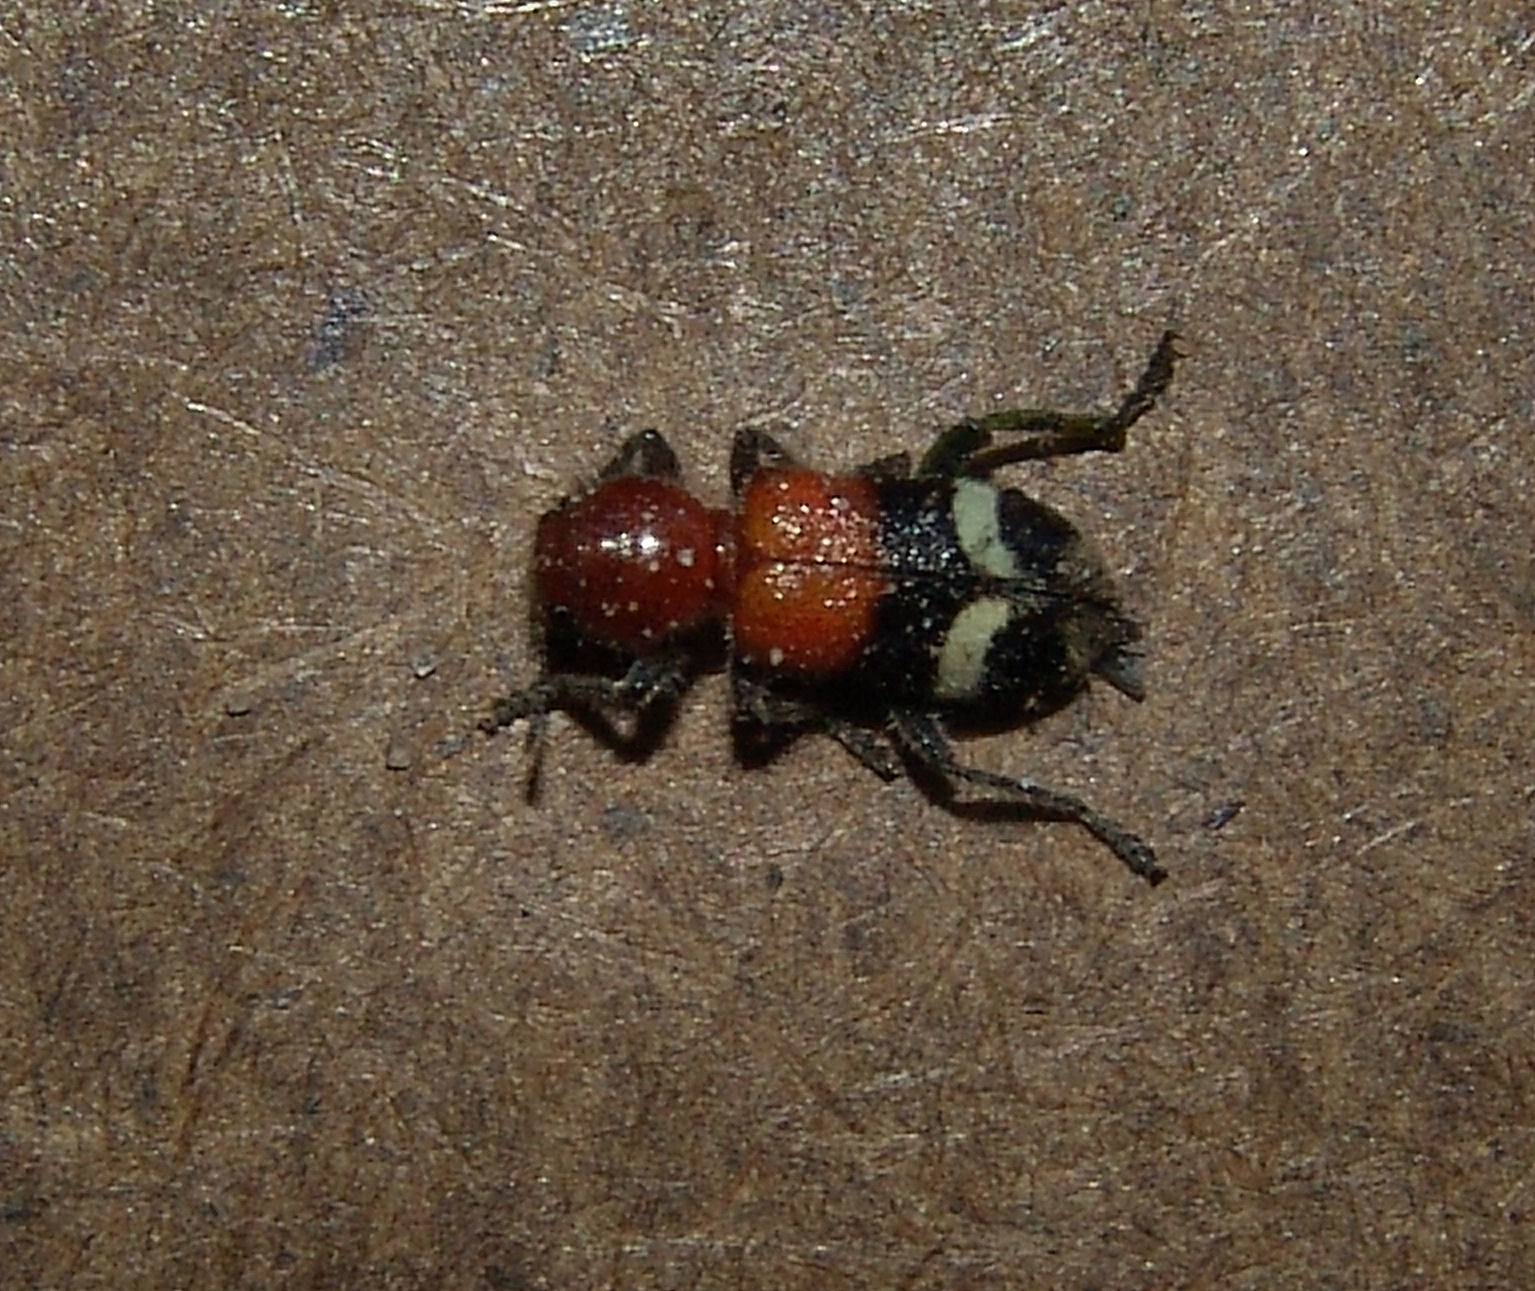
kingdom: Animalia
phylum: Arthropoda
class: Insecta
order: Coleoptera
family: Cleridae
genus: Enoclerus
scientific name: Enoclerus lunatus
